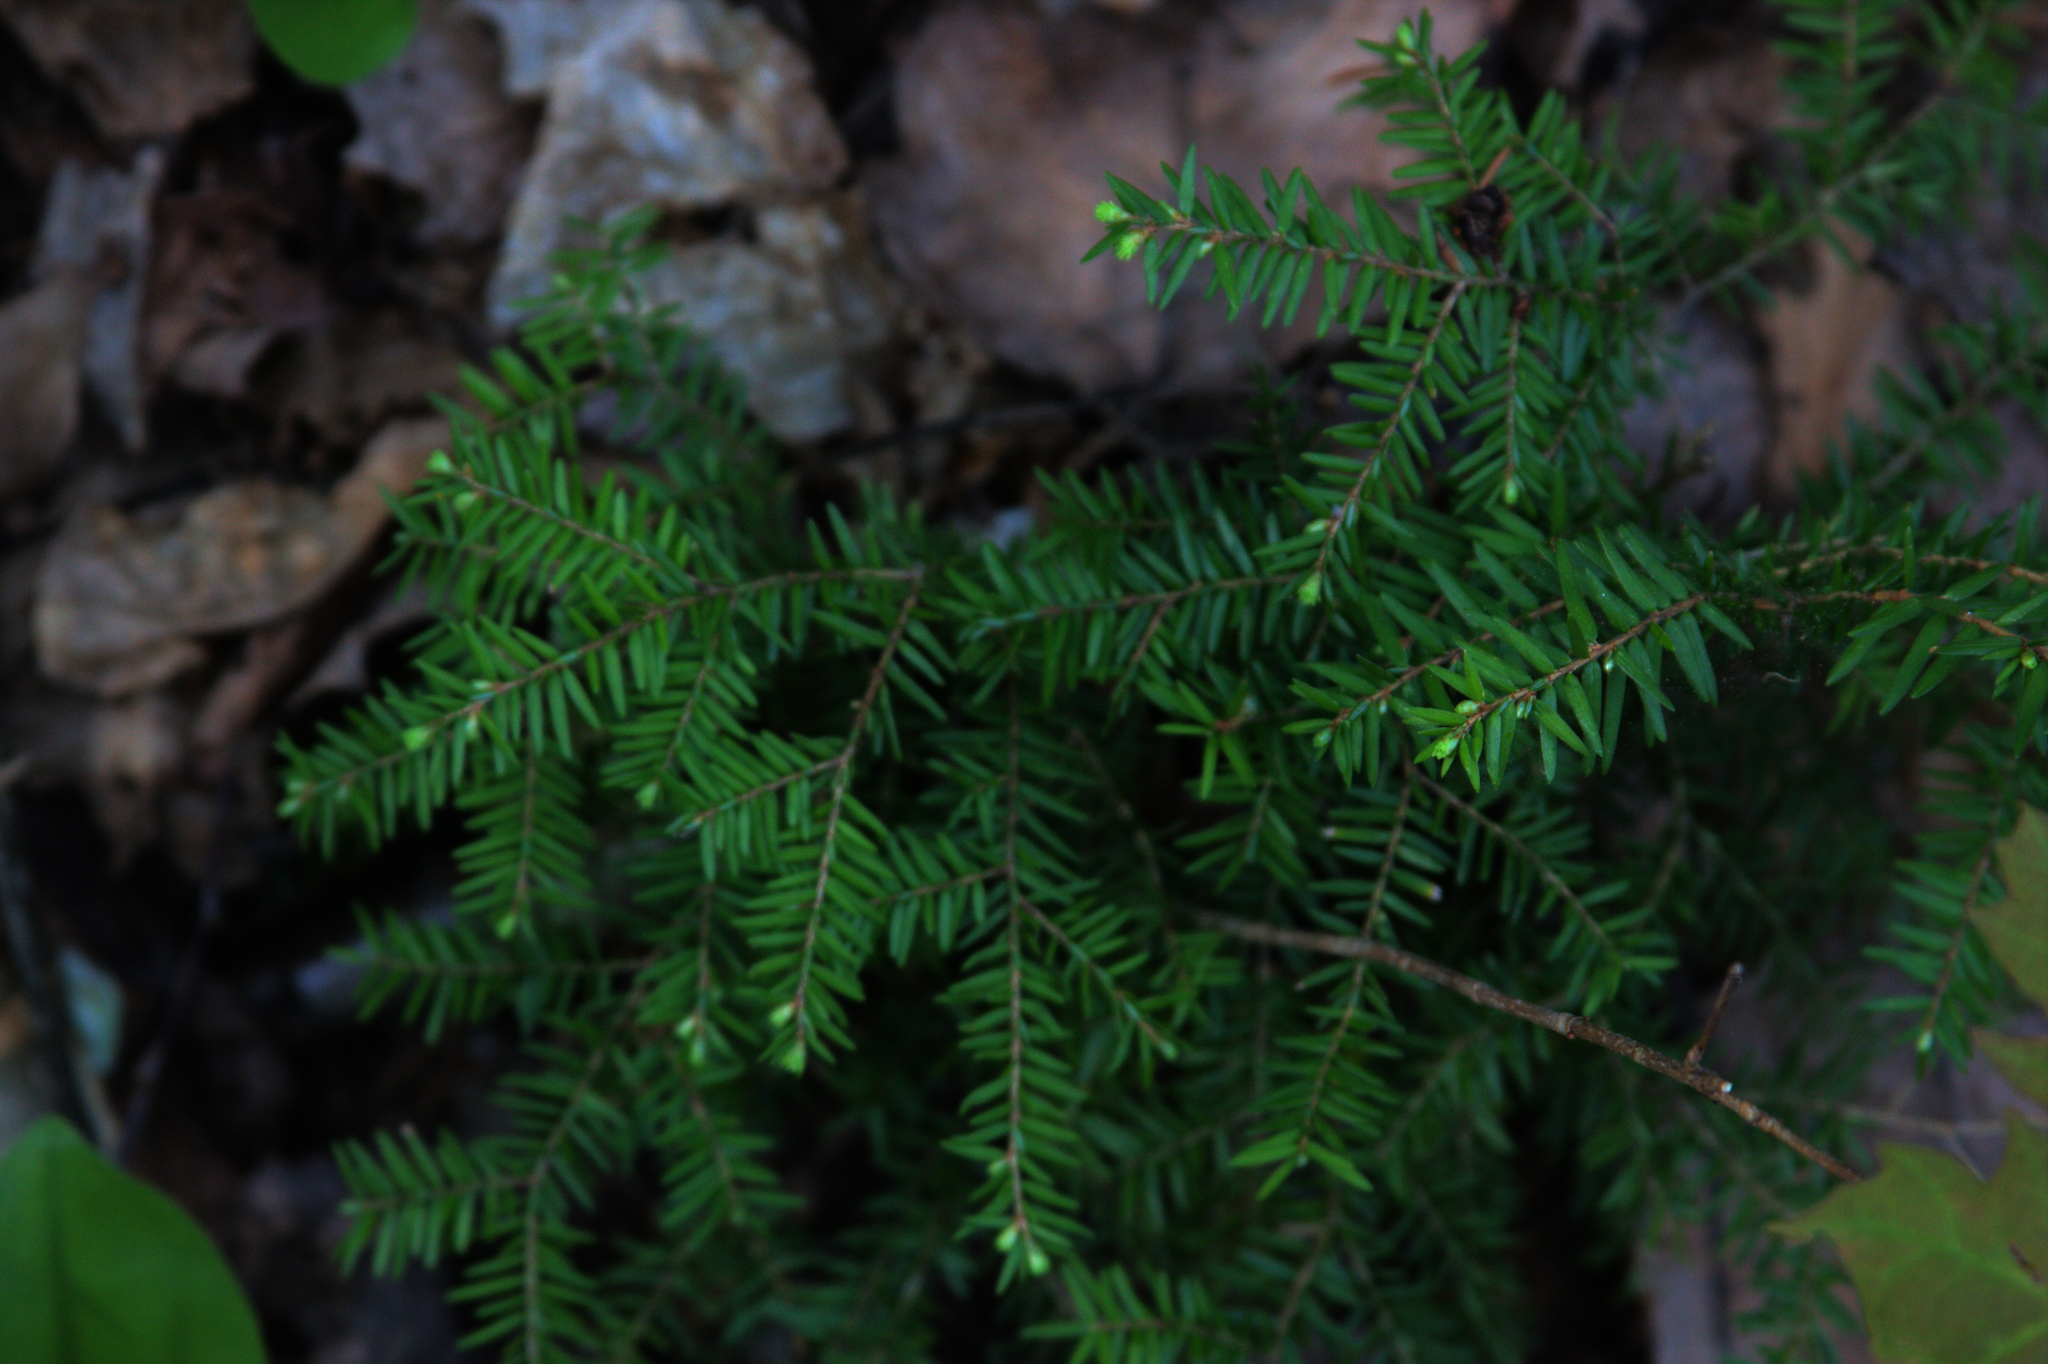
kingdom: Plantae
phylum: Tracheophyta
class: Pinopsida
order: Pinales
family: Pinaceae
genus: Tsuga
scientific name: Tsuga canadensis
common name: Eastern hemlock
